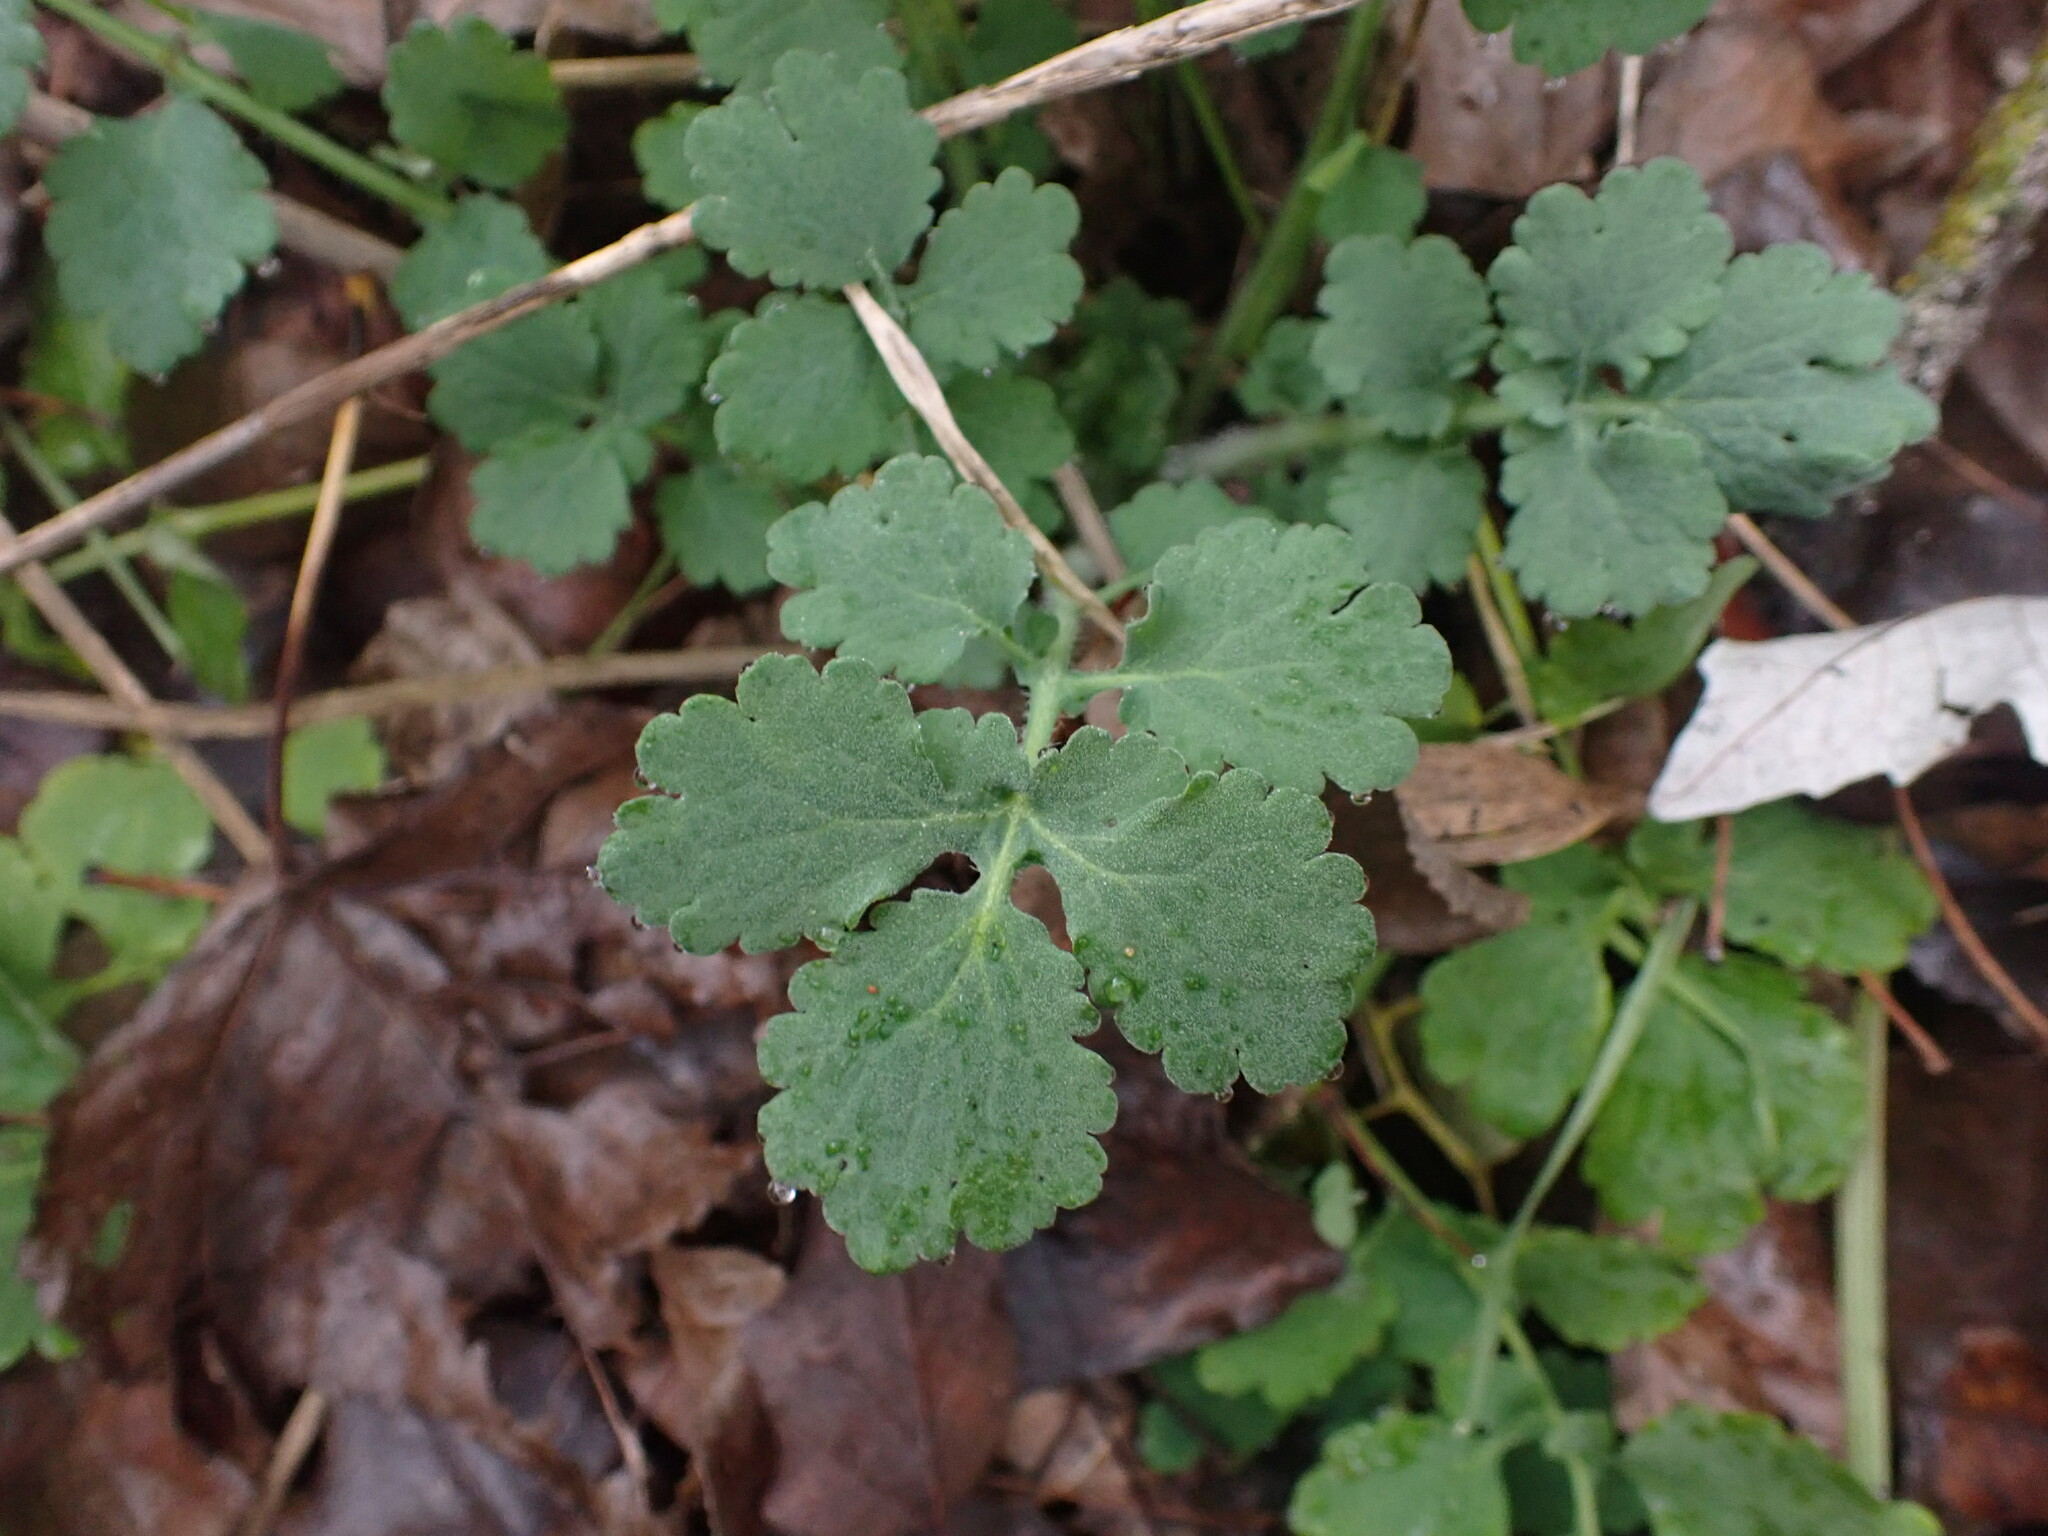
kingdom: Plantae
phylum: Tracheophyta
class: Magnoliopsida
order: Ranunculales
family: Papaveraceae
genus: Chelidonium
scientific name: Chelidonium majus
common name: Greater celandine
